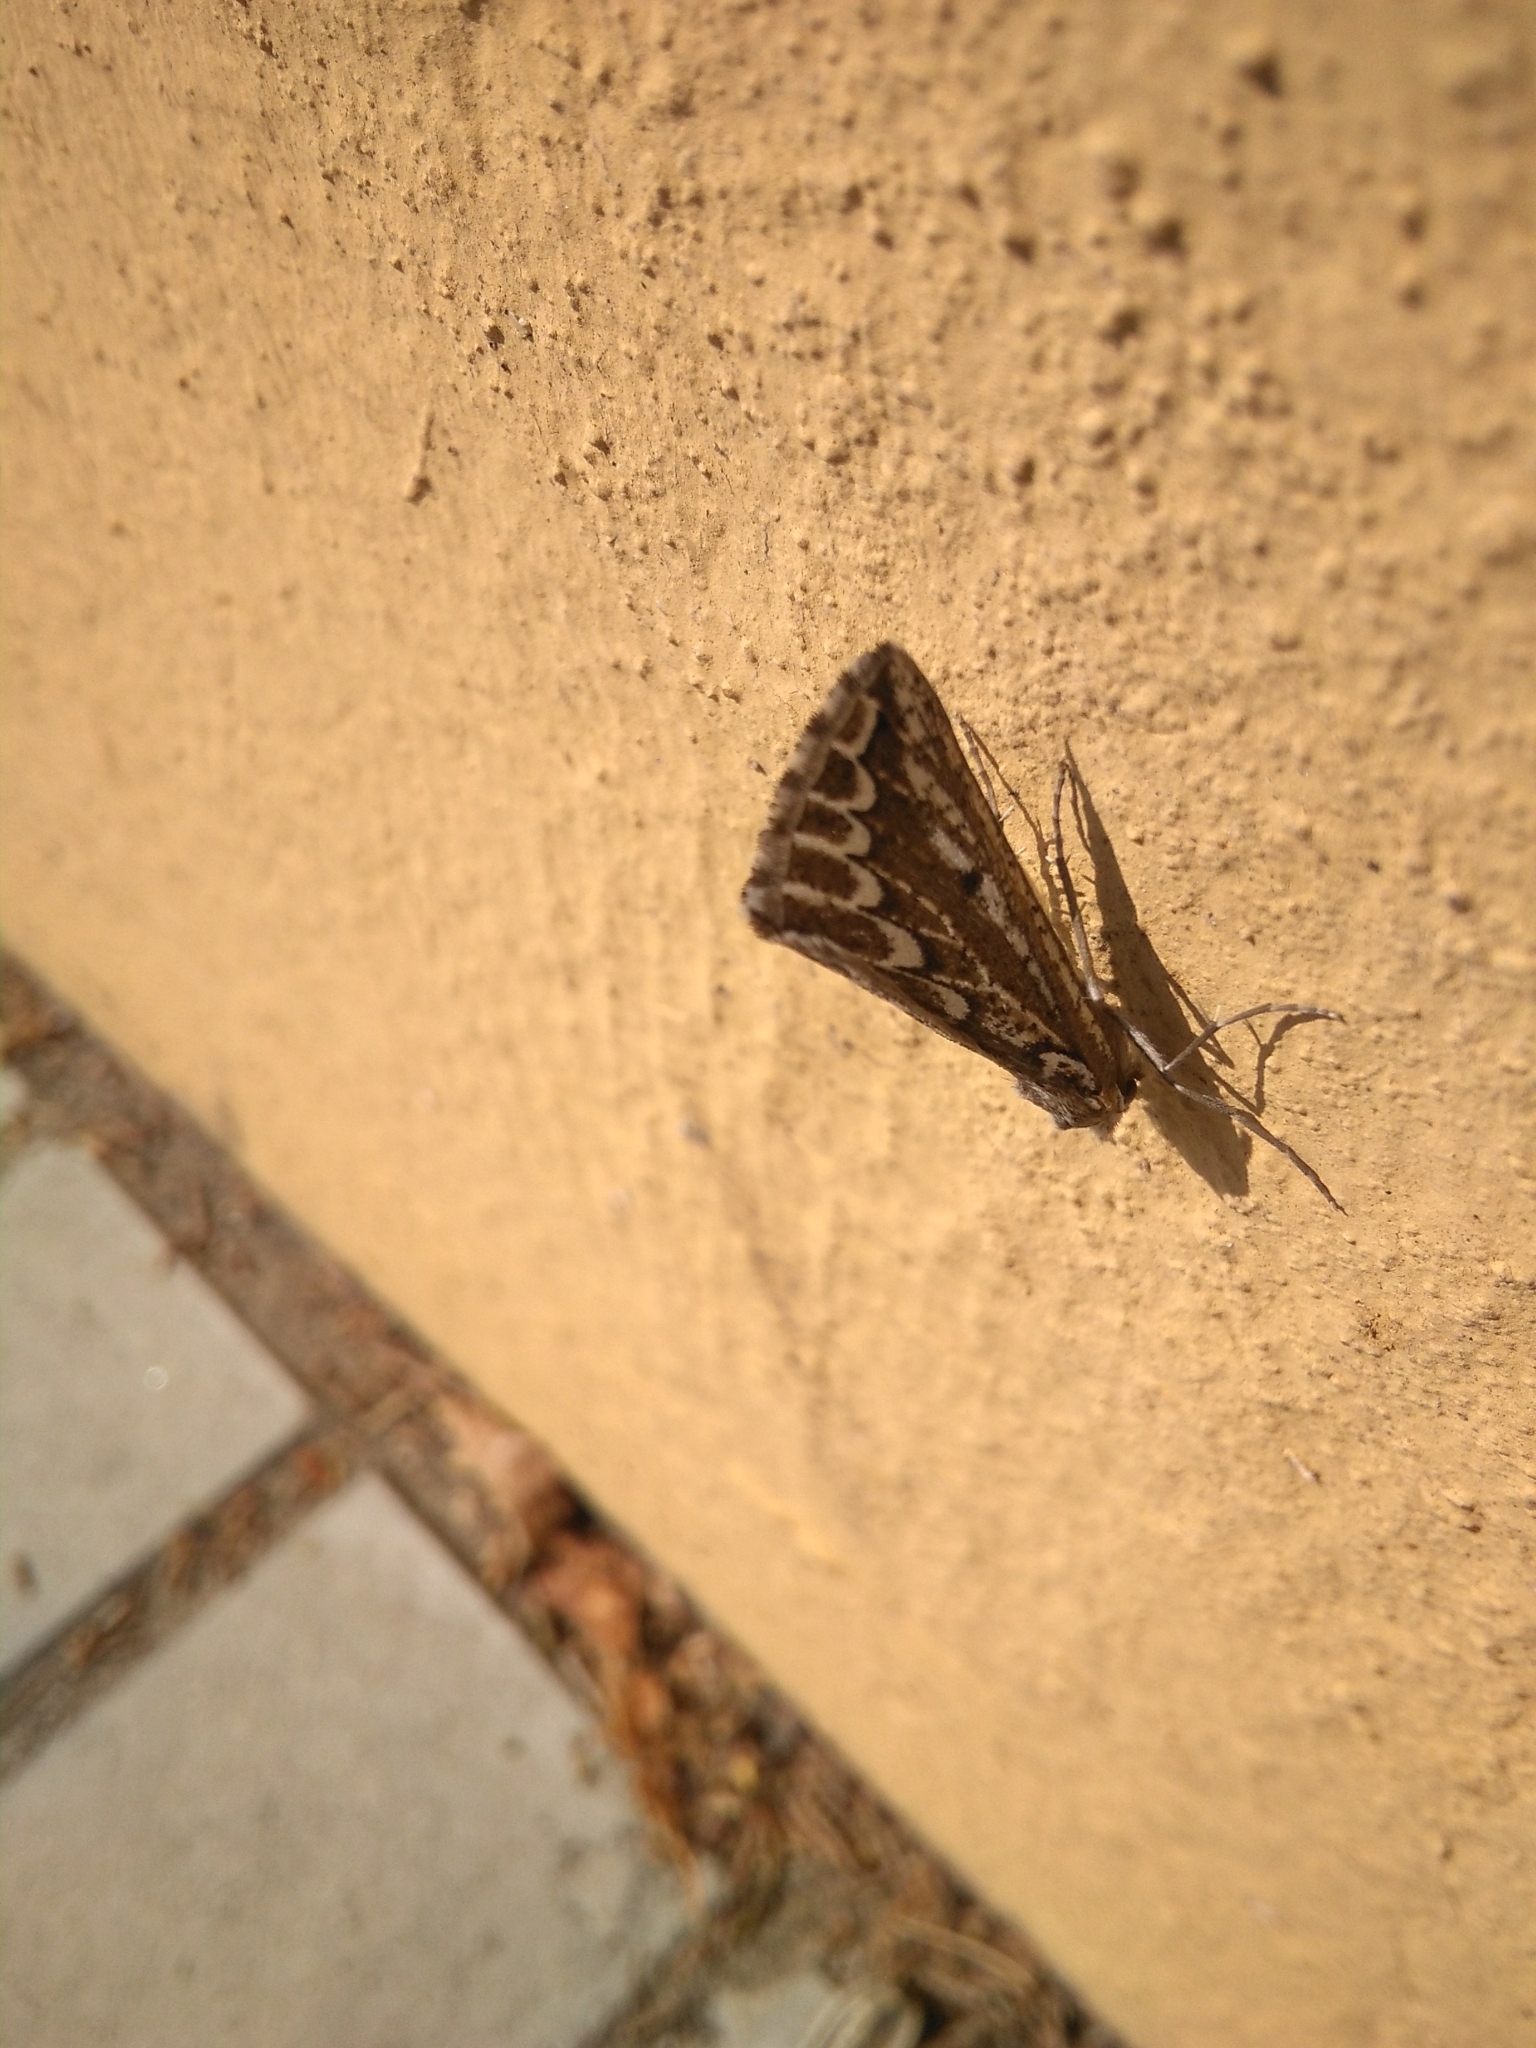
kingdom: Animalia
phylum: Arthropoda
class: Insecta
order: Lepidoptera
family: Geometridae
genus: Compsoptera
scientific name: Compsoptera jourdanaria
